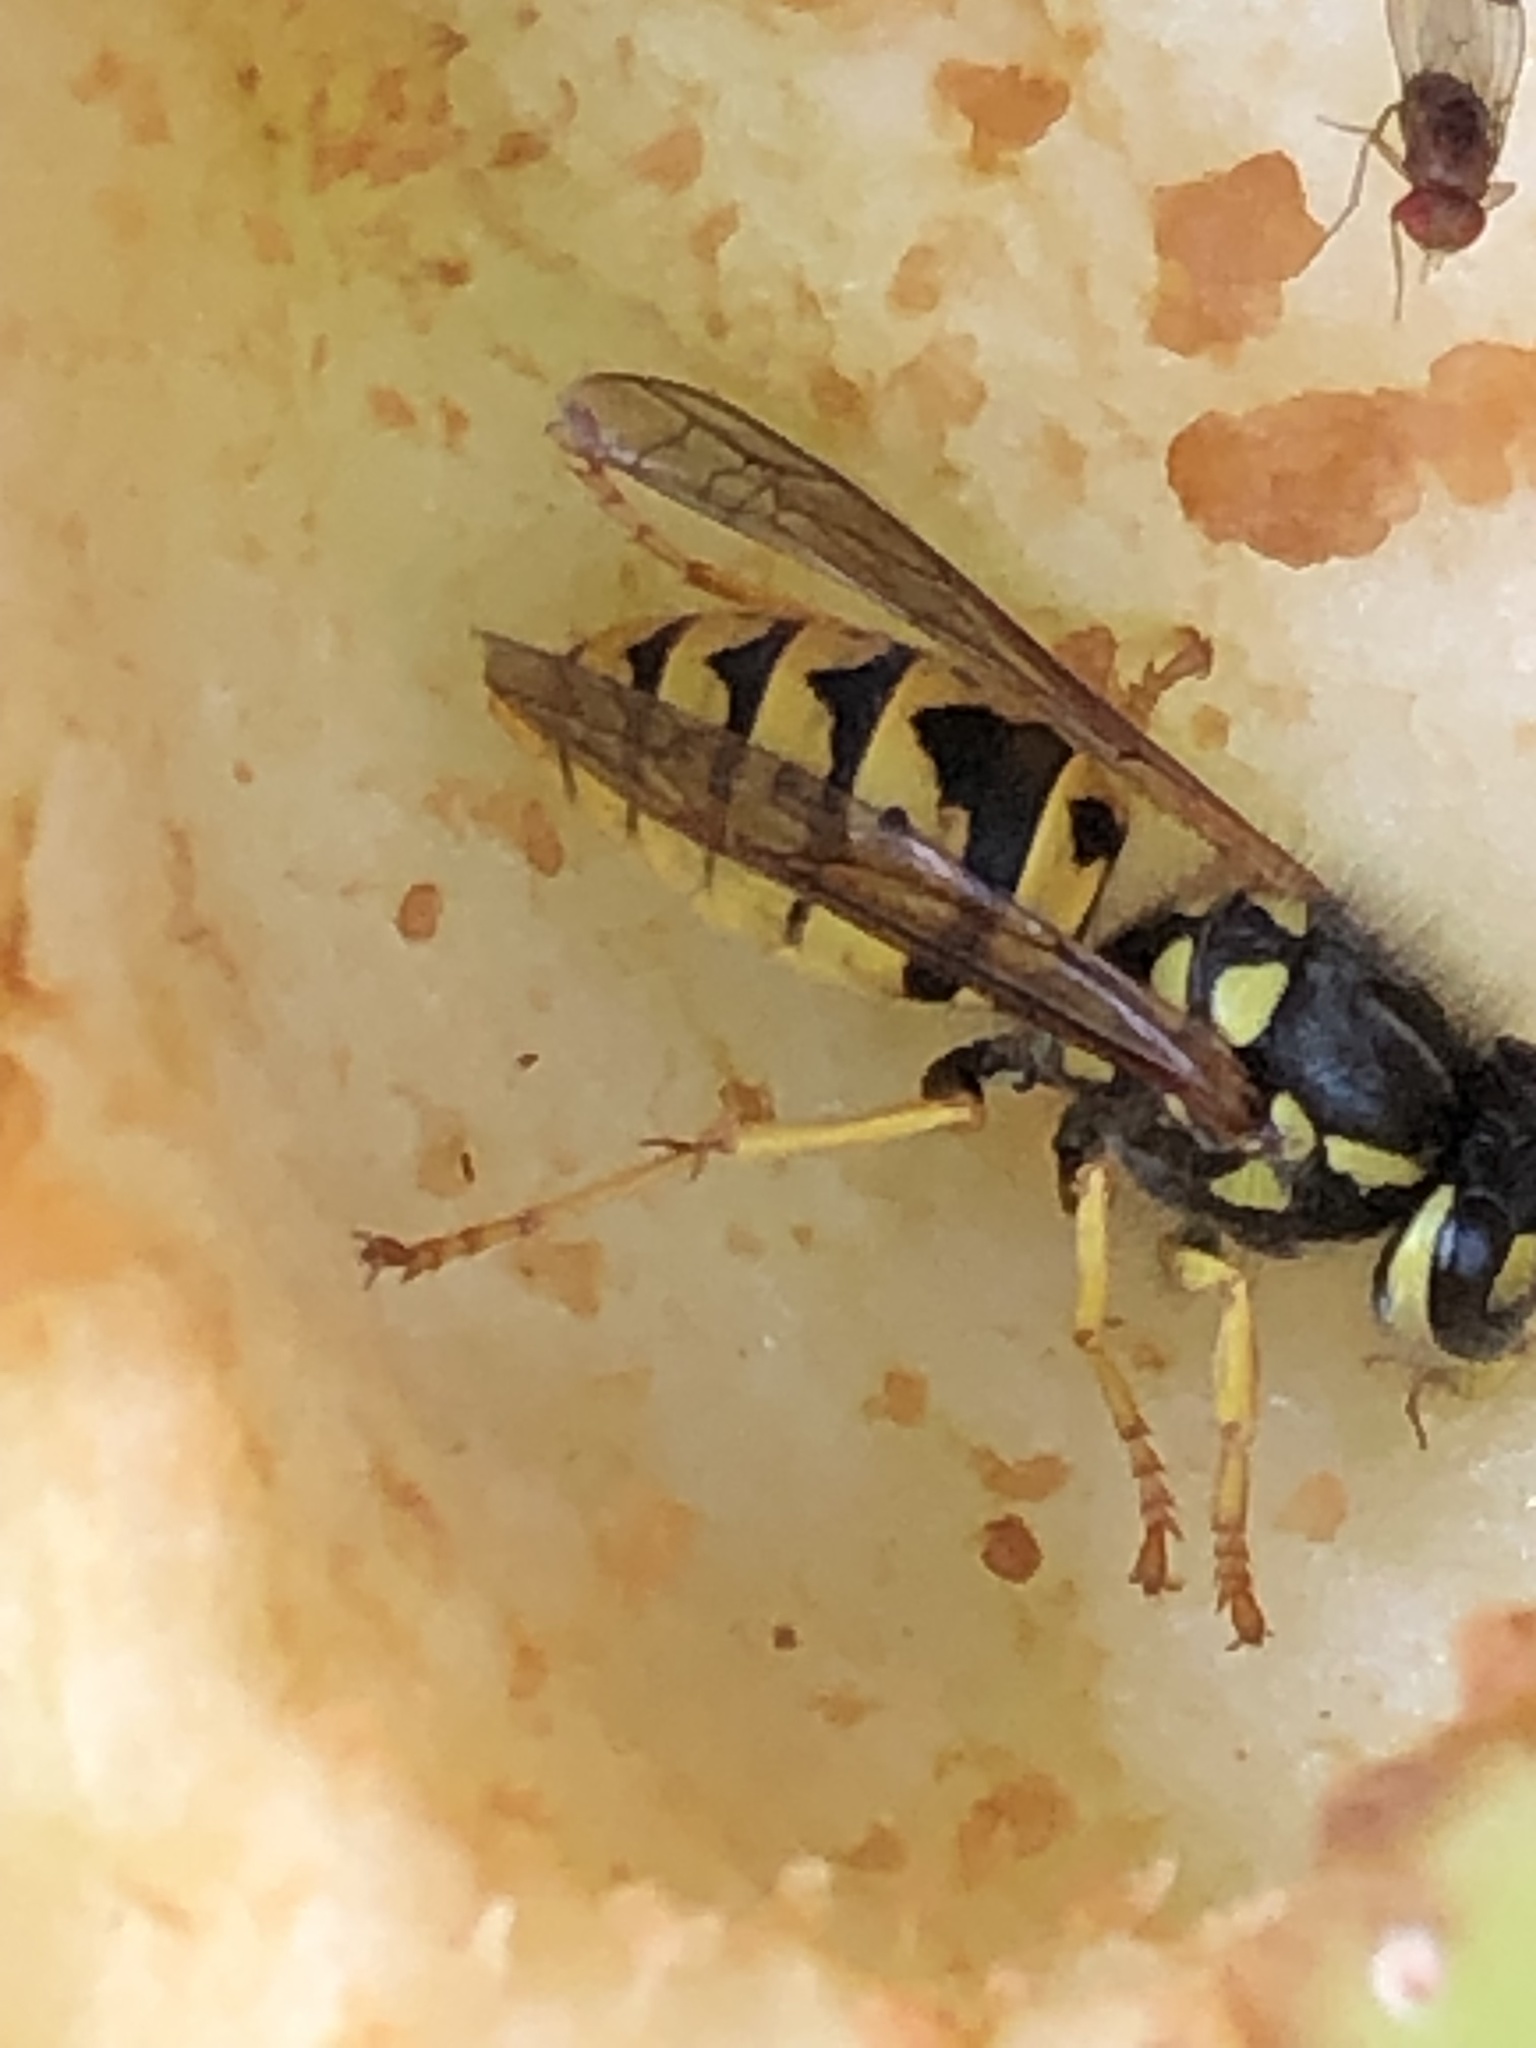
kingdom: Animalia
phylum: Arthropoda
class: Insecta
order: Hymenoptera
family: Vespidae
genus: Vespula
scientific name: Vespula germanica
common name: German wasp
